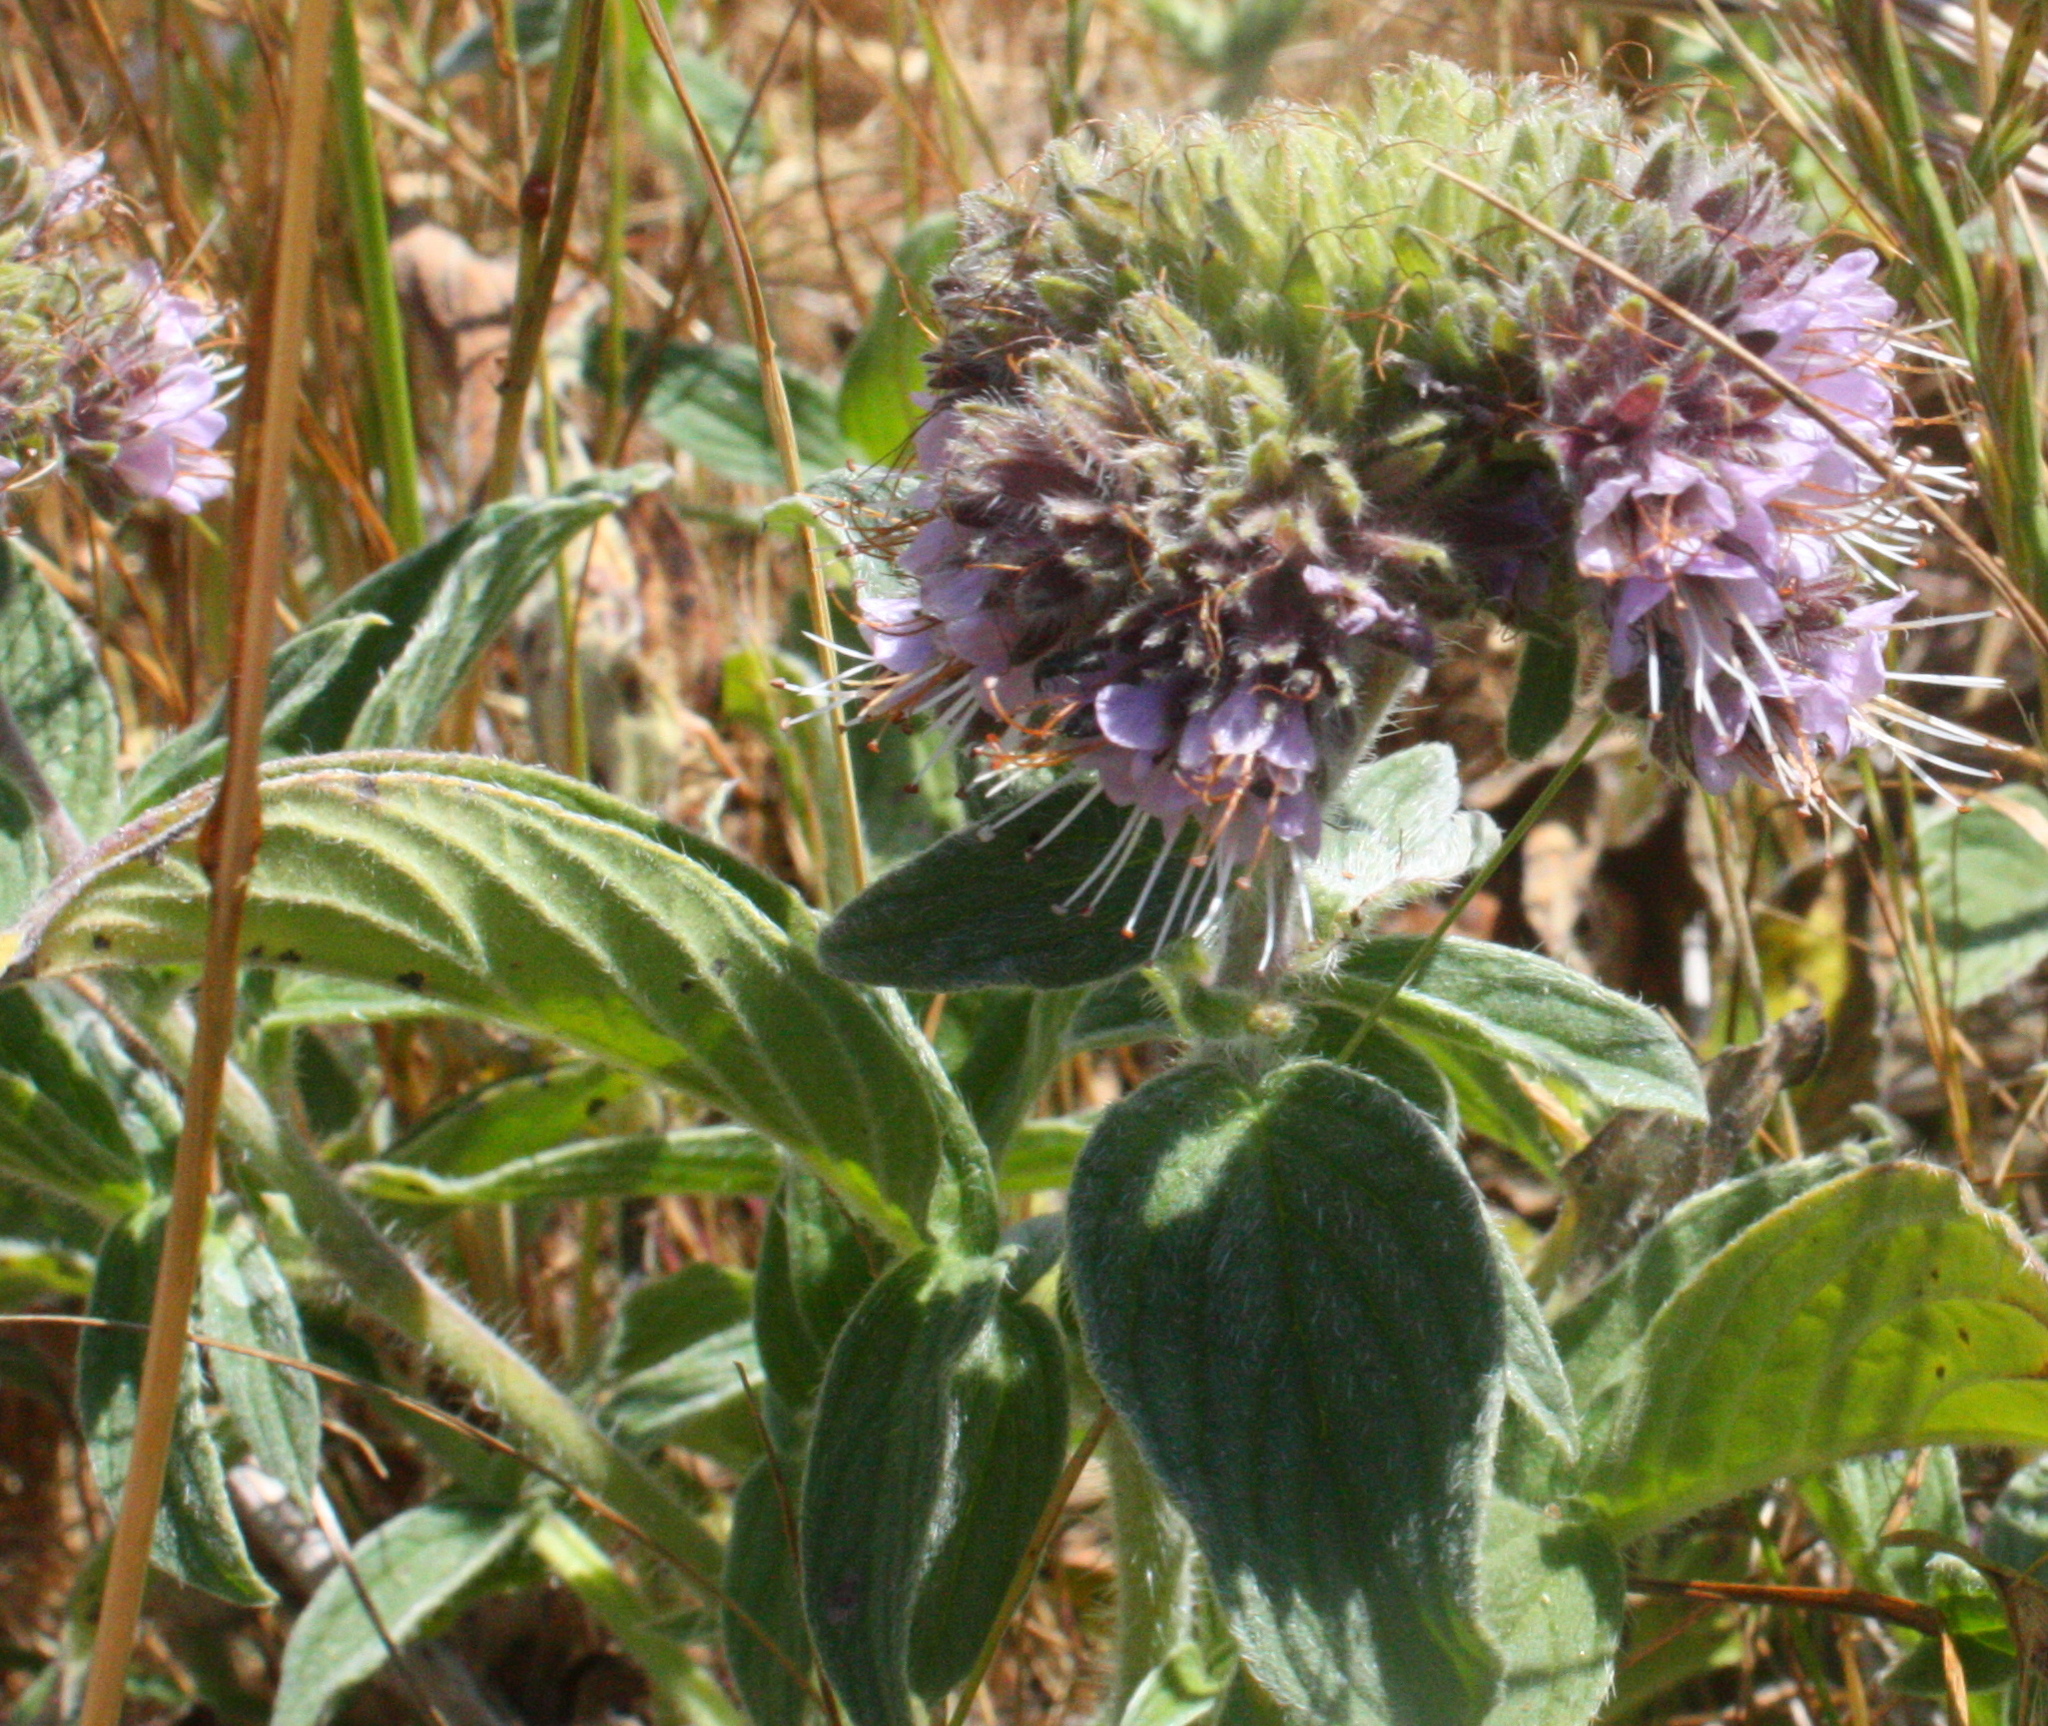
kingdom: Plantae
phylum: Tracheophyta
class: Magnoliopsida
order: Boraginales
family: Hydrophyllaceae
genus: Phacelia
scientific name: Phacelia californica
